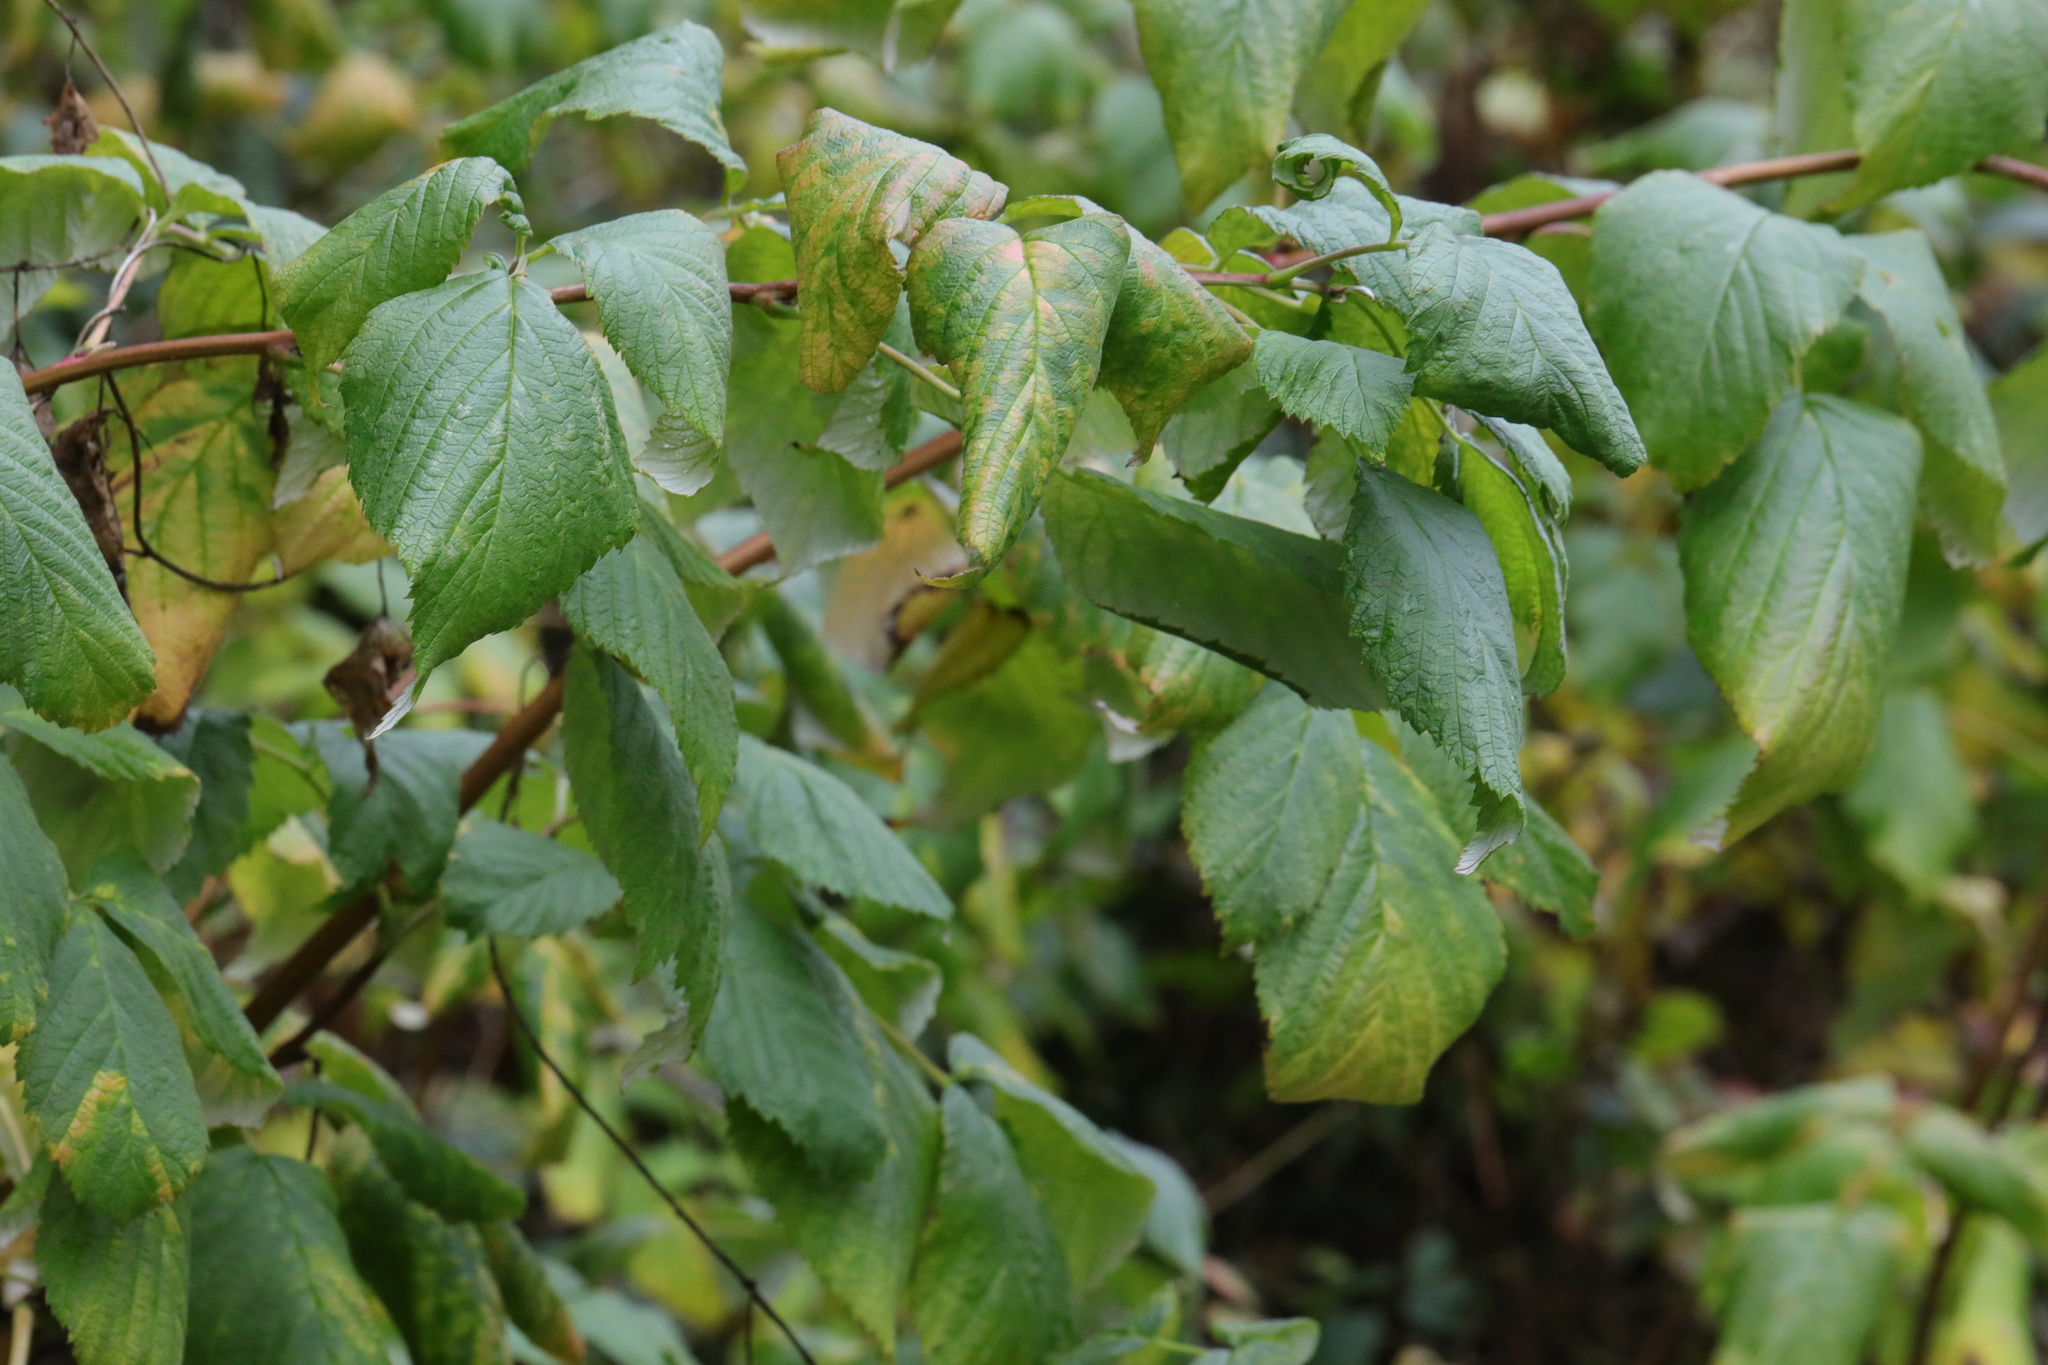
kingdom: Plantae
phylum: Tracheophyta
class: Magnoliopsida
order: Rosales
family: Rosaceae
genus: Rubus
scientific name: Rubus idaeus
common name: Raspberry
